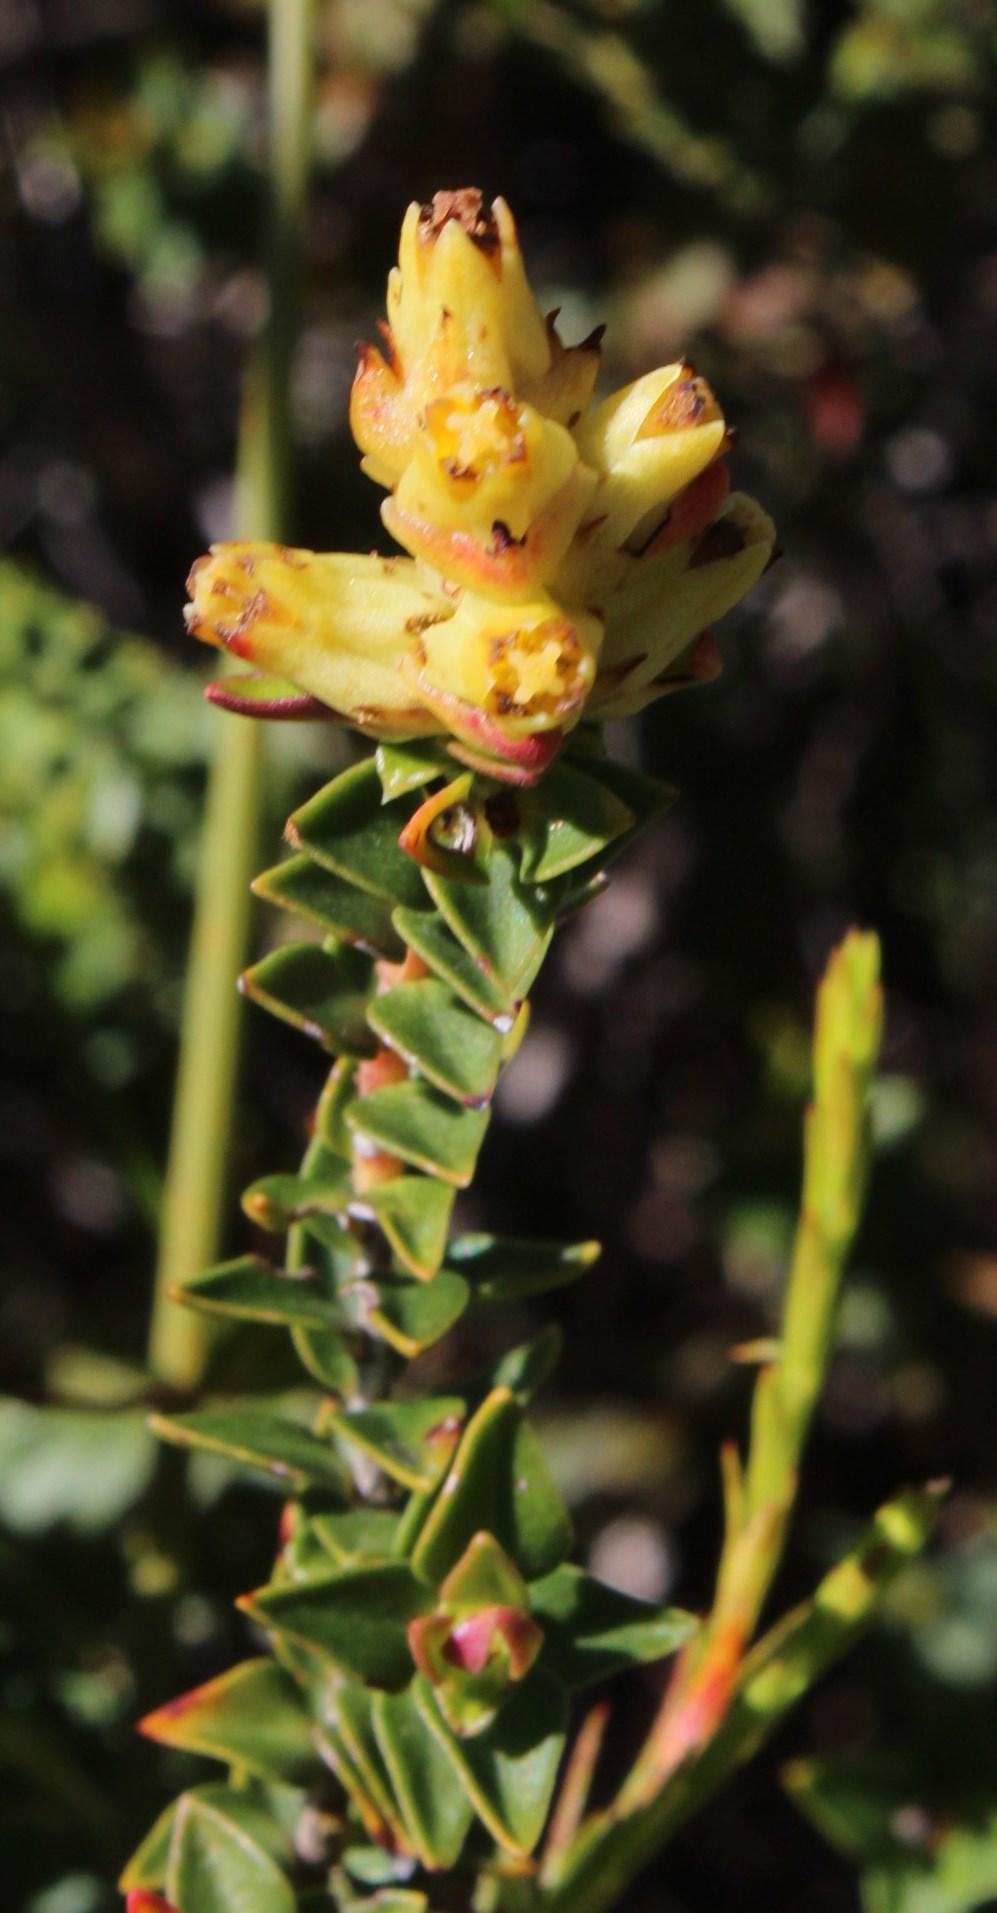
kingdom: Plantae
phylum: Tracheophyta
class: Magnoliopsida
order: Myrtales
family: Penaeaceae
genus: Penaea
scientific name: Penaea mucronata
